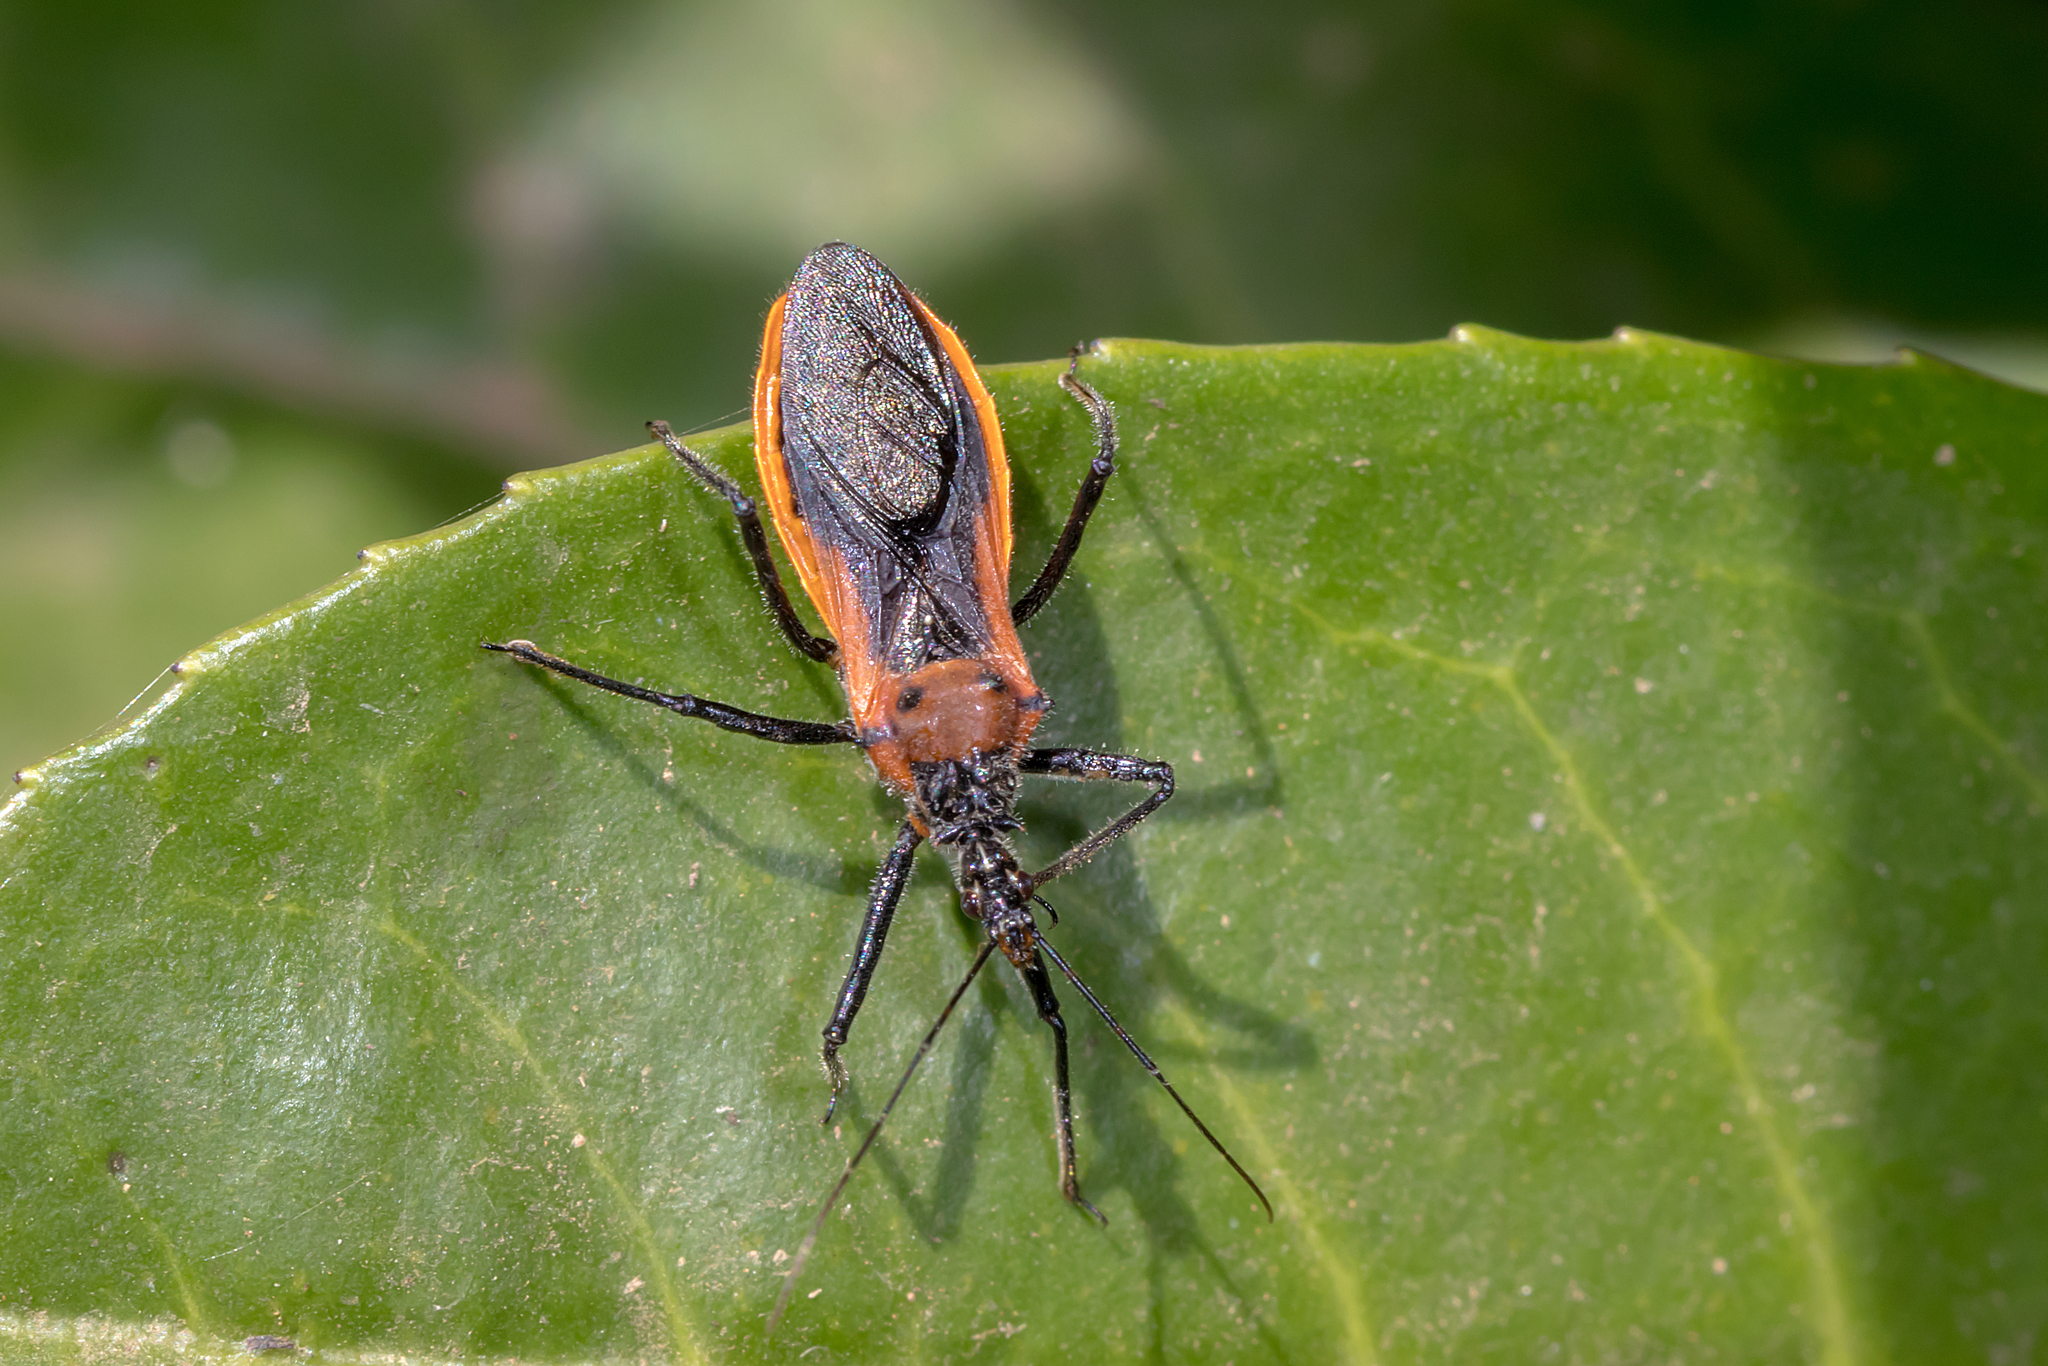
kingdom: Animalia
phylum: Arthropoda
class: Insecta
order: Hemiptera
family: Reduviidae
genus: Gminatus
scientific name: Gminatus australis
